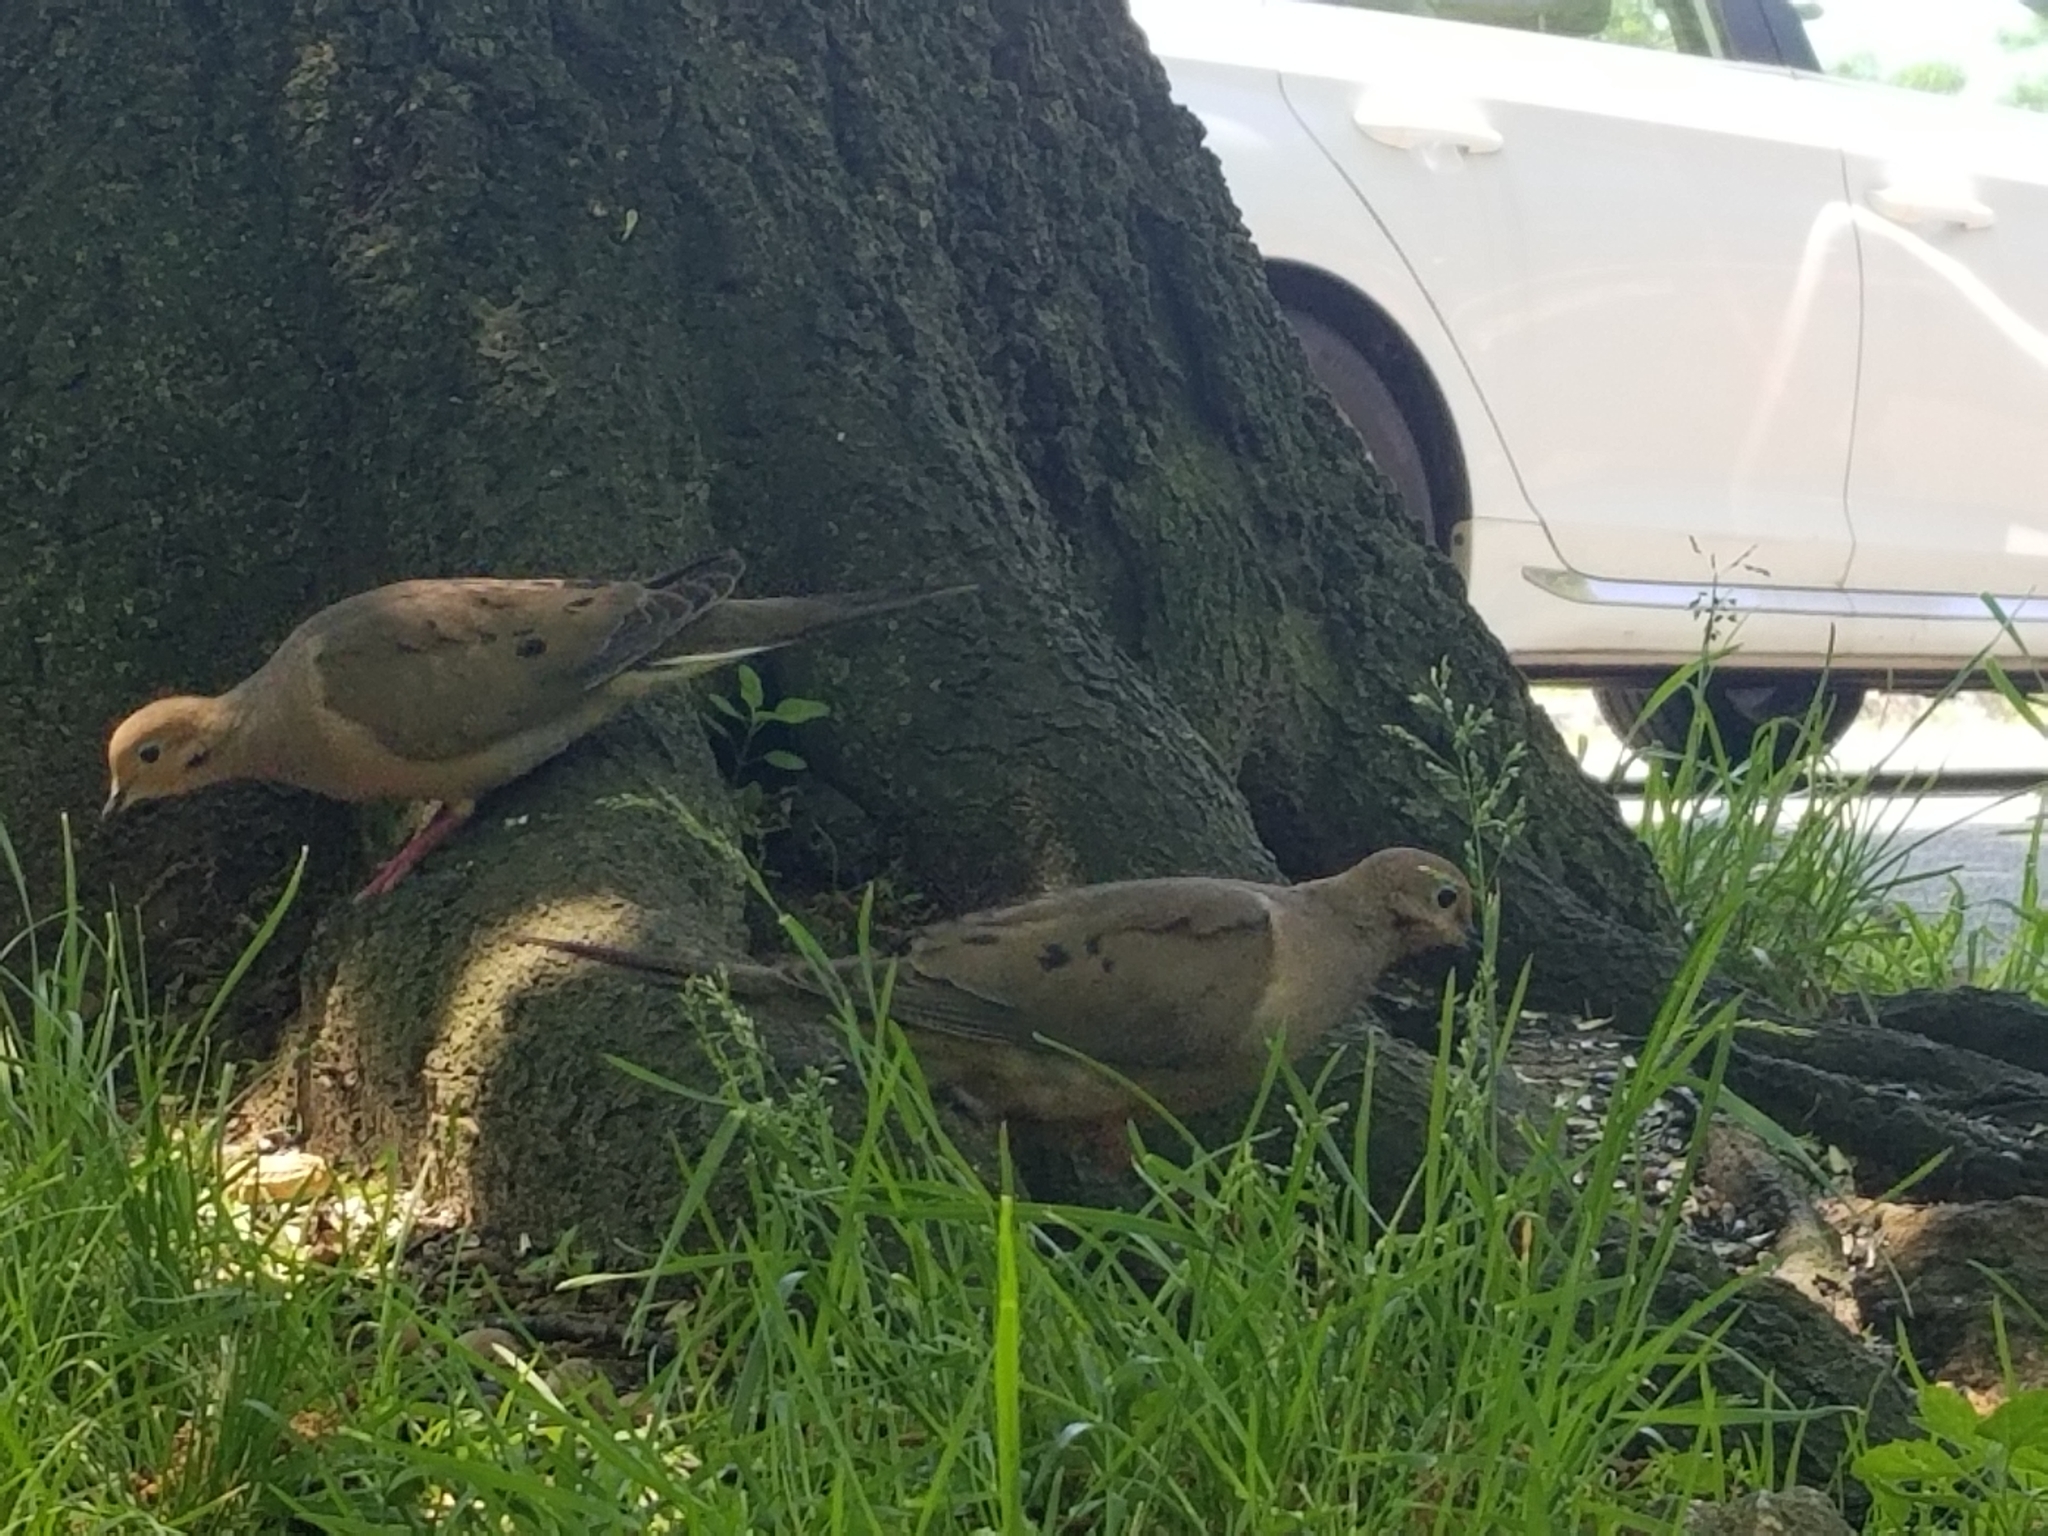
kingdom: Animalia
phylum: Chordata
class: Aves
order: Columbiformes
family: Columbidae
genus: Zenaida
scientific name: Zenaida macroura
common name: Mourning dove
